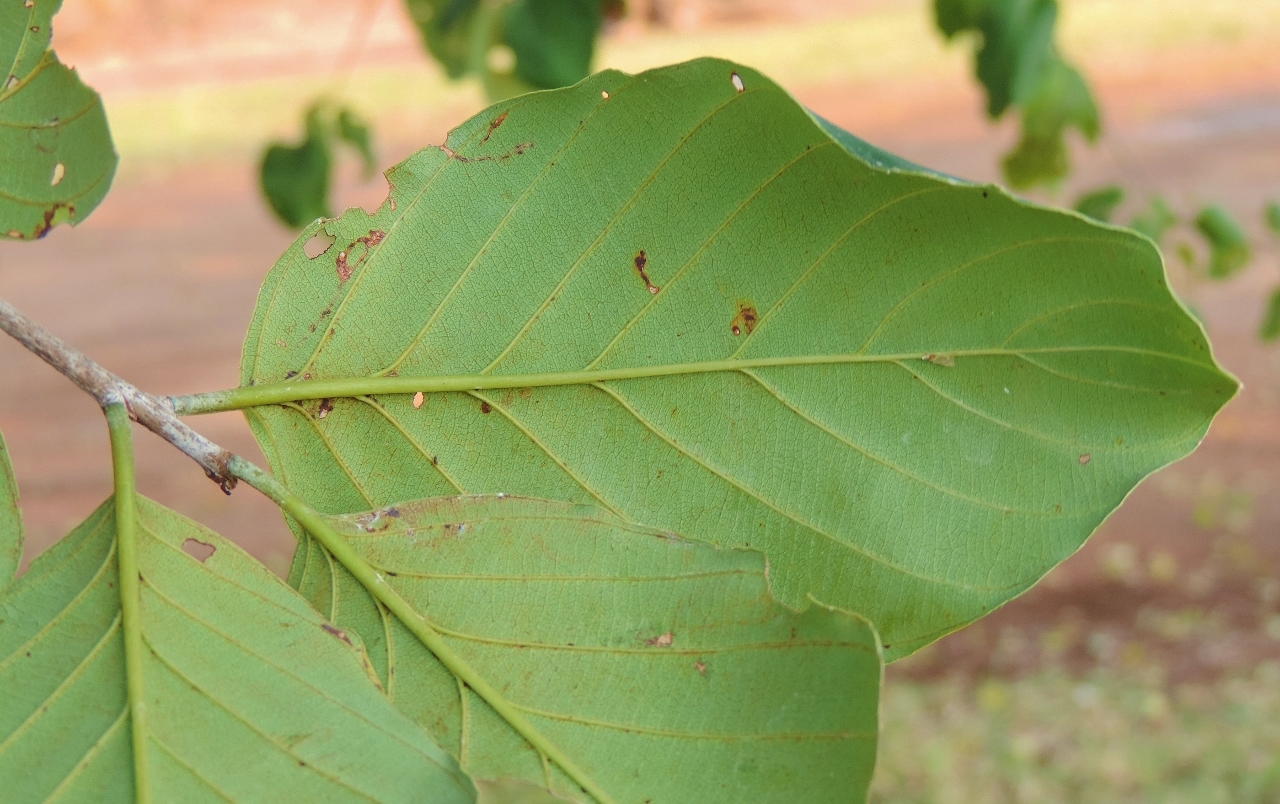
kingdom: Plantae
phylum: Tracheophyta
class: Magnoliopsida
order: Rosales
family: Rhamnaceae
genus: Phyllogeiton
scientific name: Phyllogeiton discolor
